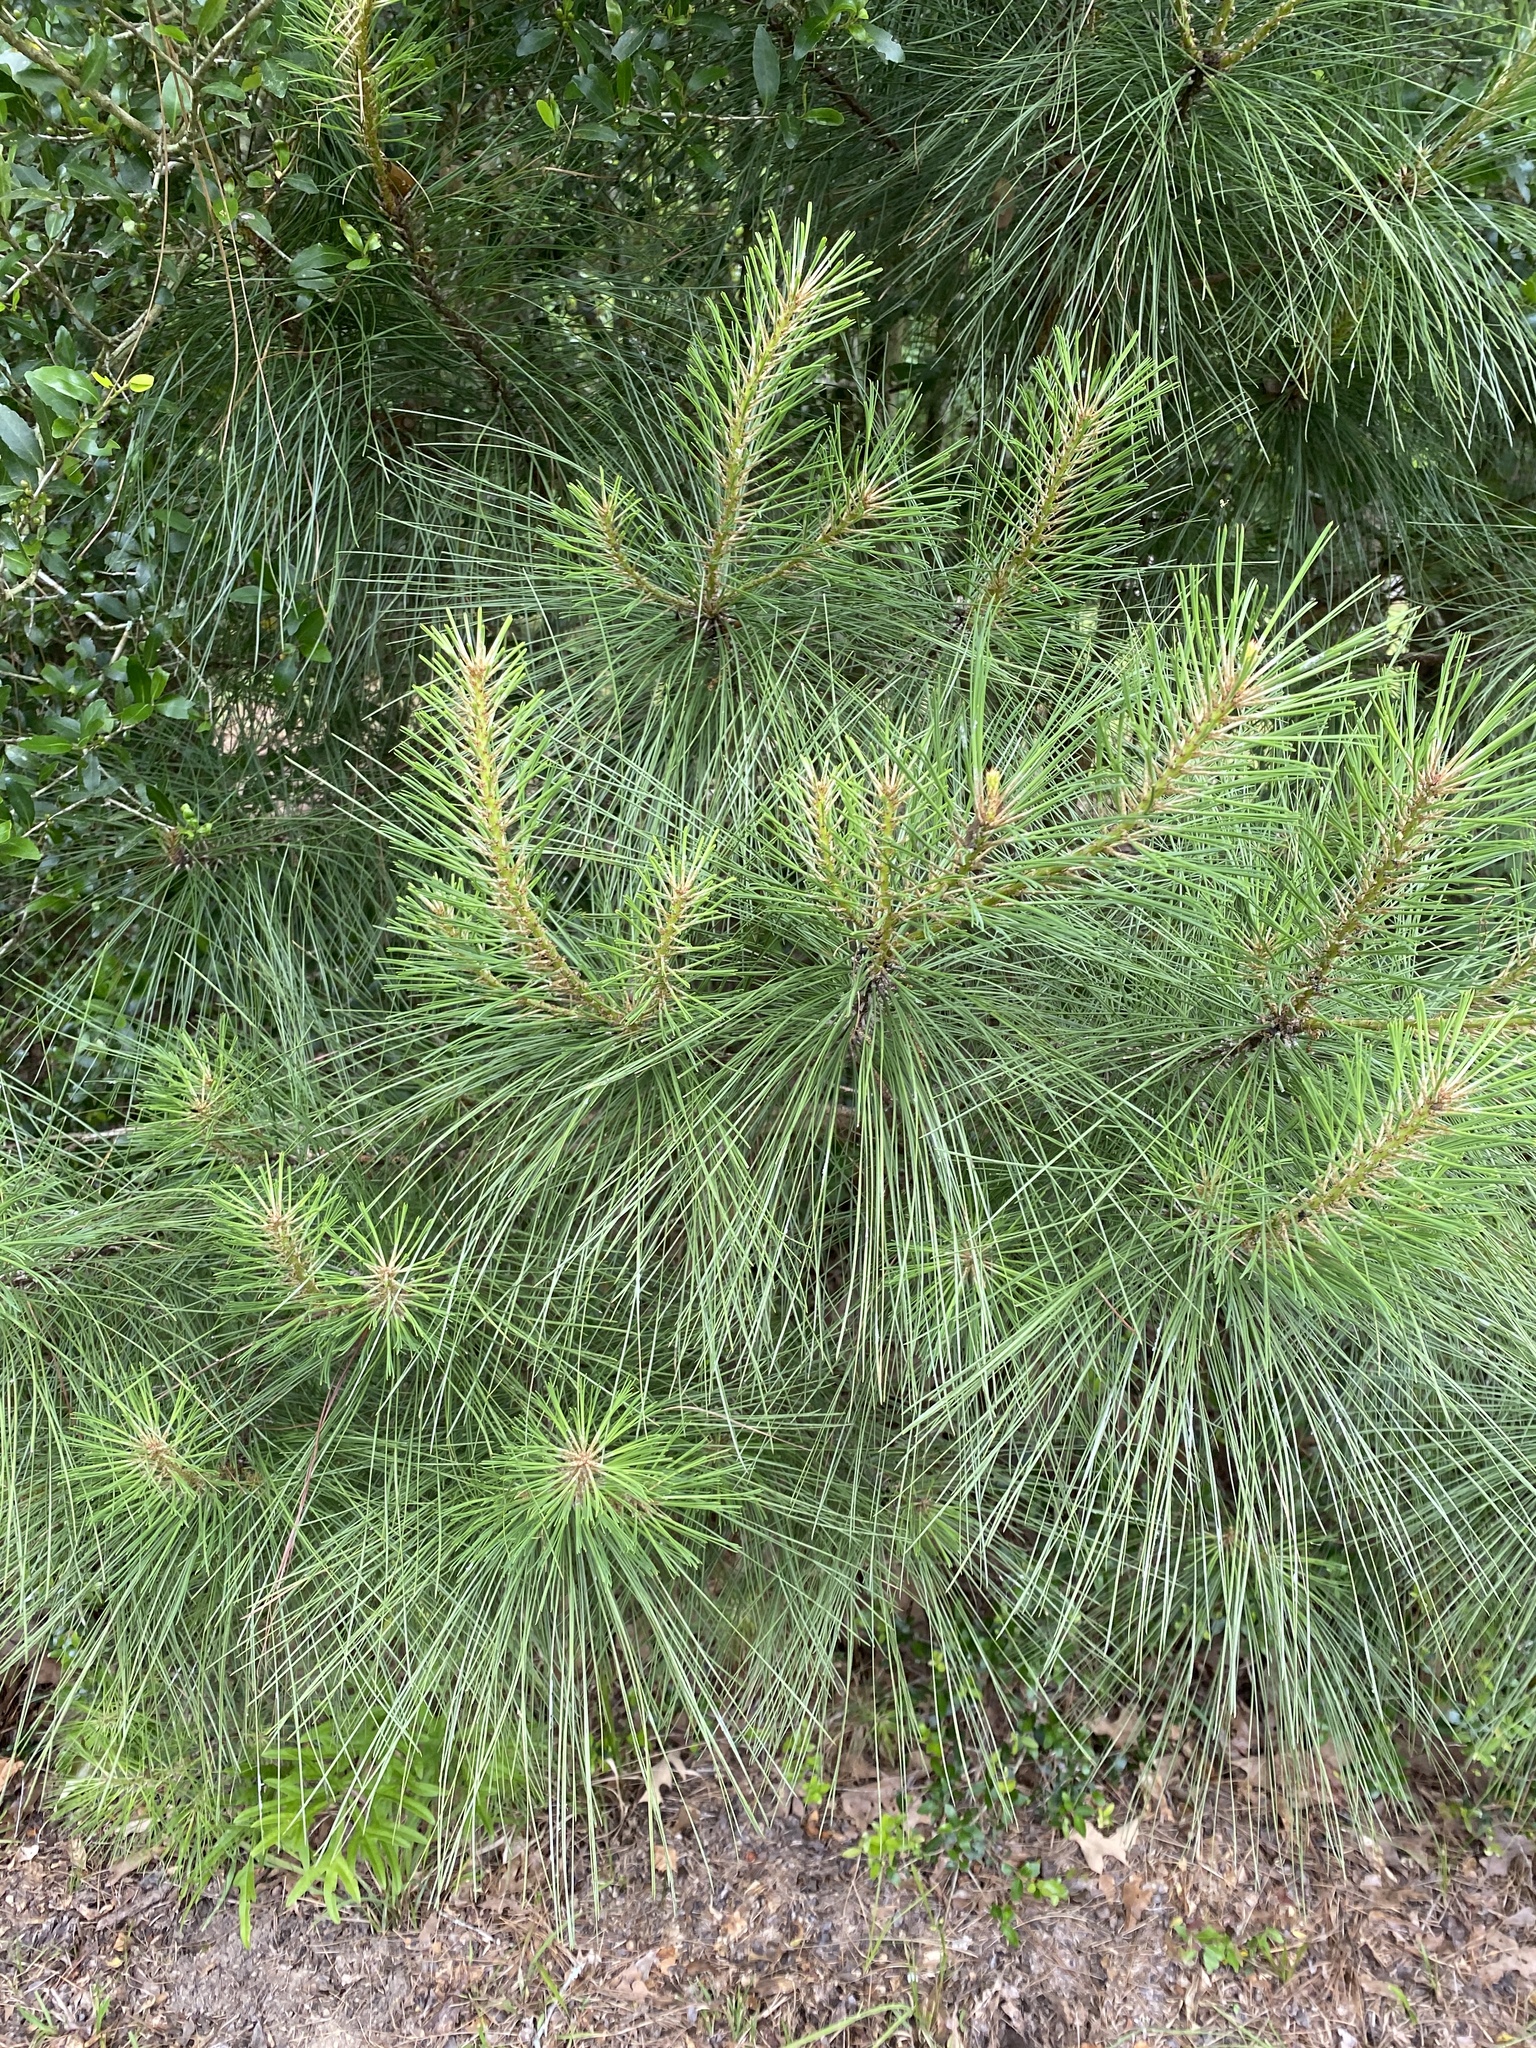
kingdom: Plantae
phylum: Tracheophyta
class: Pinopsida
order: Pinales
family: Pinaceae
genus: Pinus
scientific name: Pinus taeda
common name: Loblolly pine
